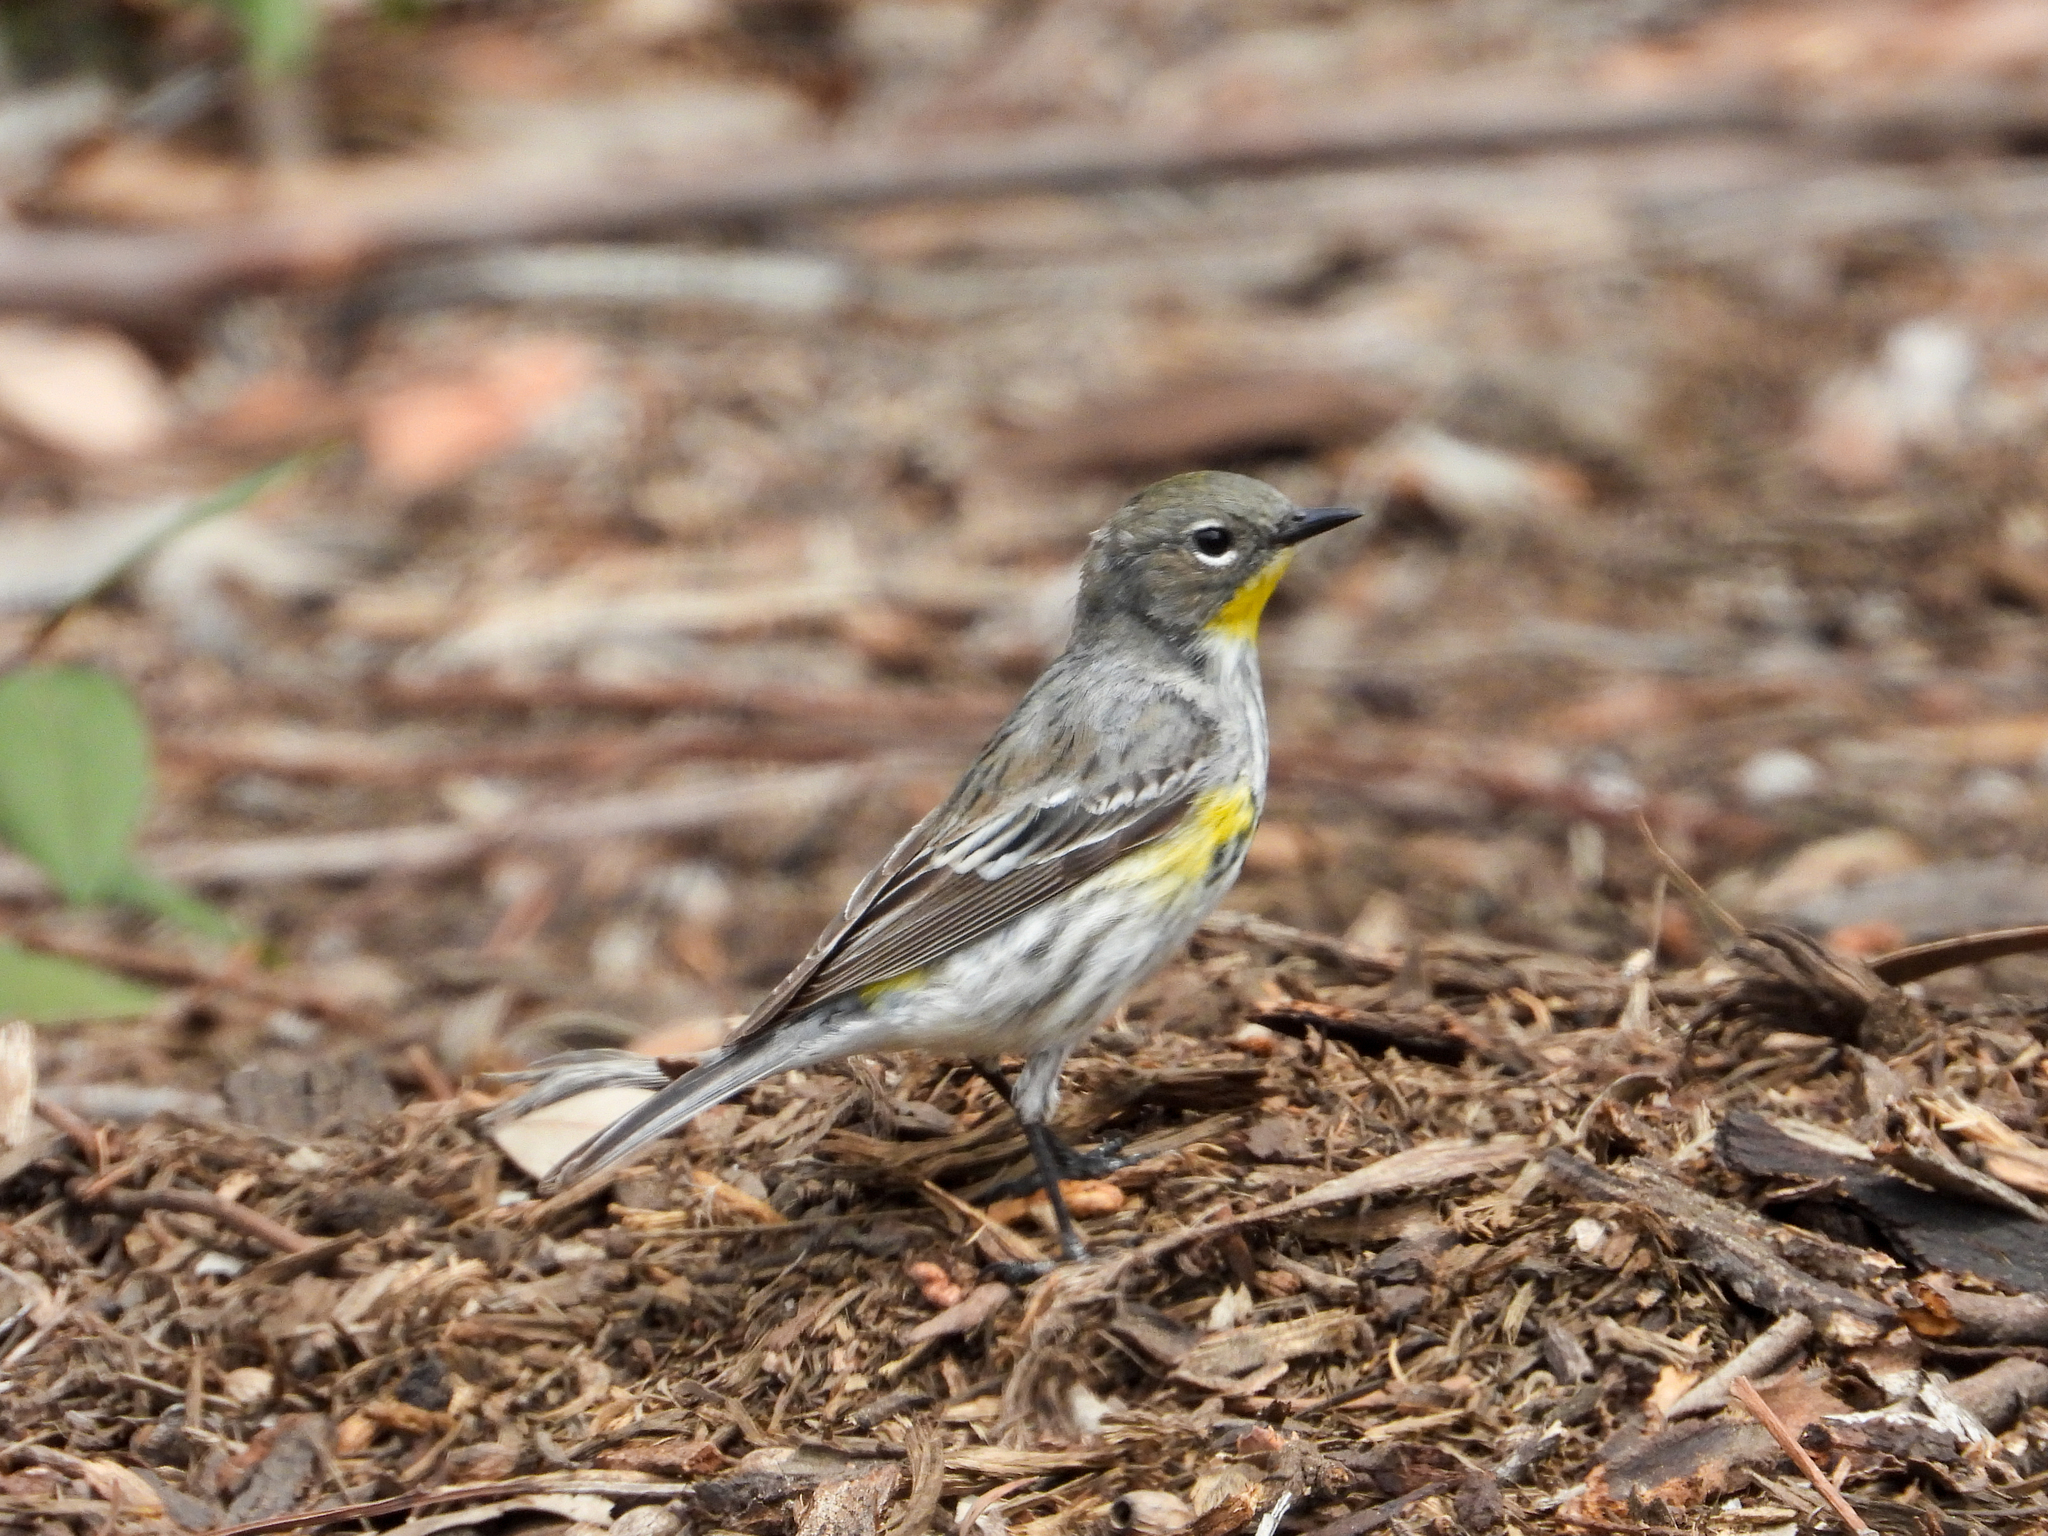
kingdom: Animalia
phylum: Chordata
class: Aves
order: Passeriformes
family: Parulidae
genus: Setophaga
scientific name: Setophaga coronata
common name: Myrtle warbler
